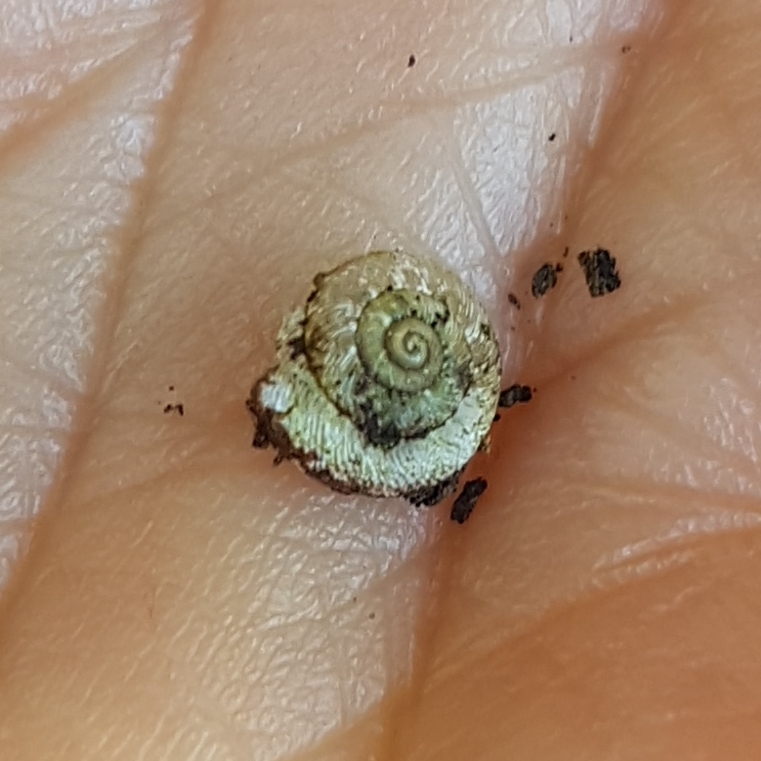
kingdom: Animalia
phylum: Mollusca
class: Gastropoda
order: Stylommatophora
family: Geomitridae
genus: Xerotricha
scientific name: Xerotricha conspurcata
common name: Snail
